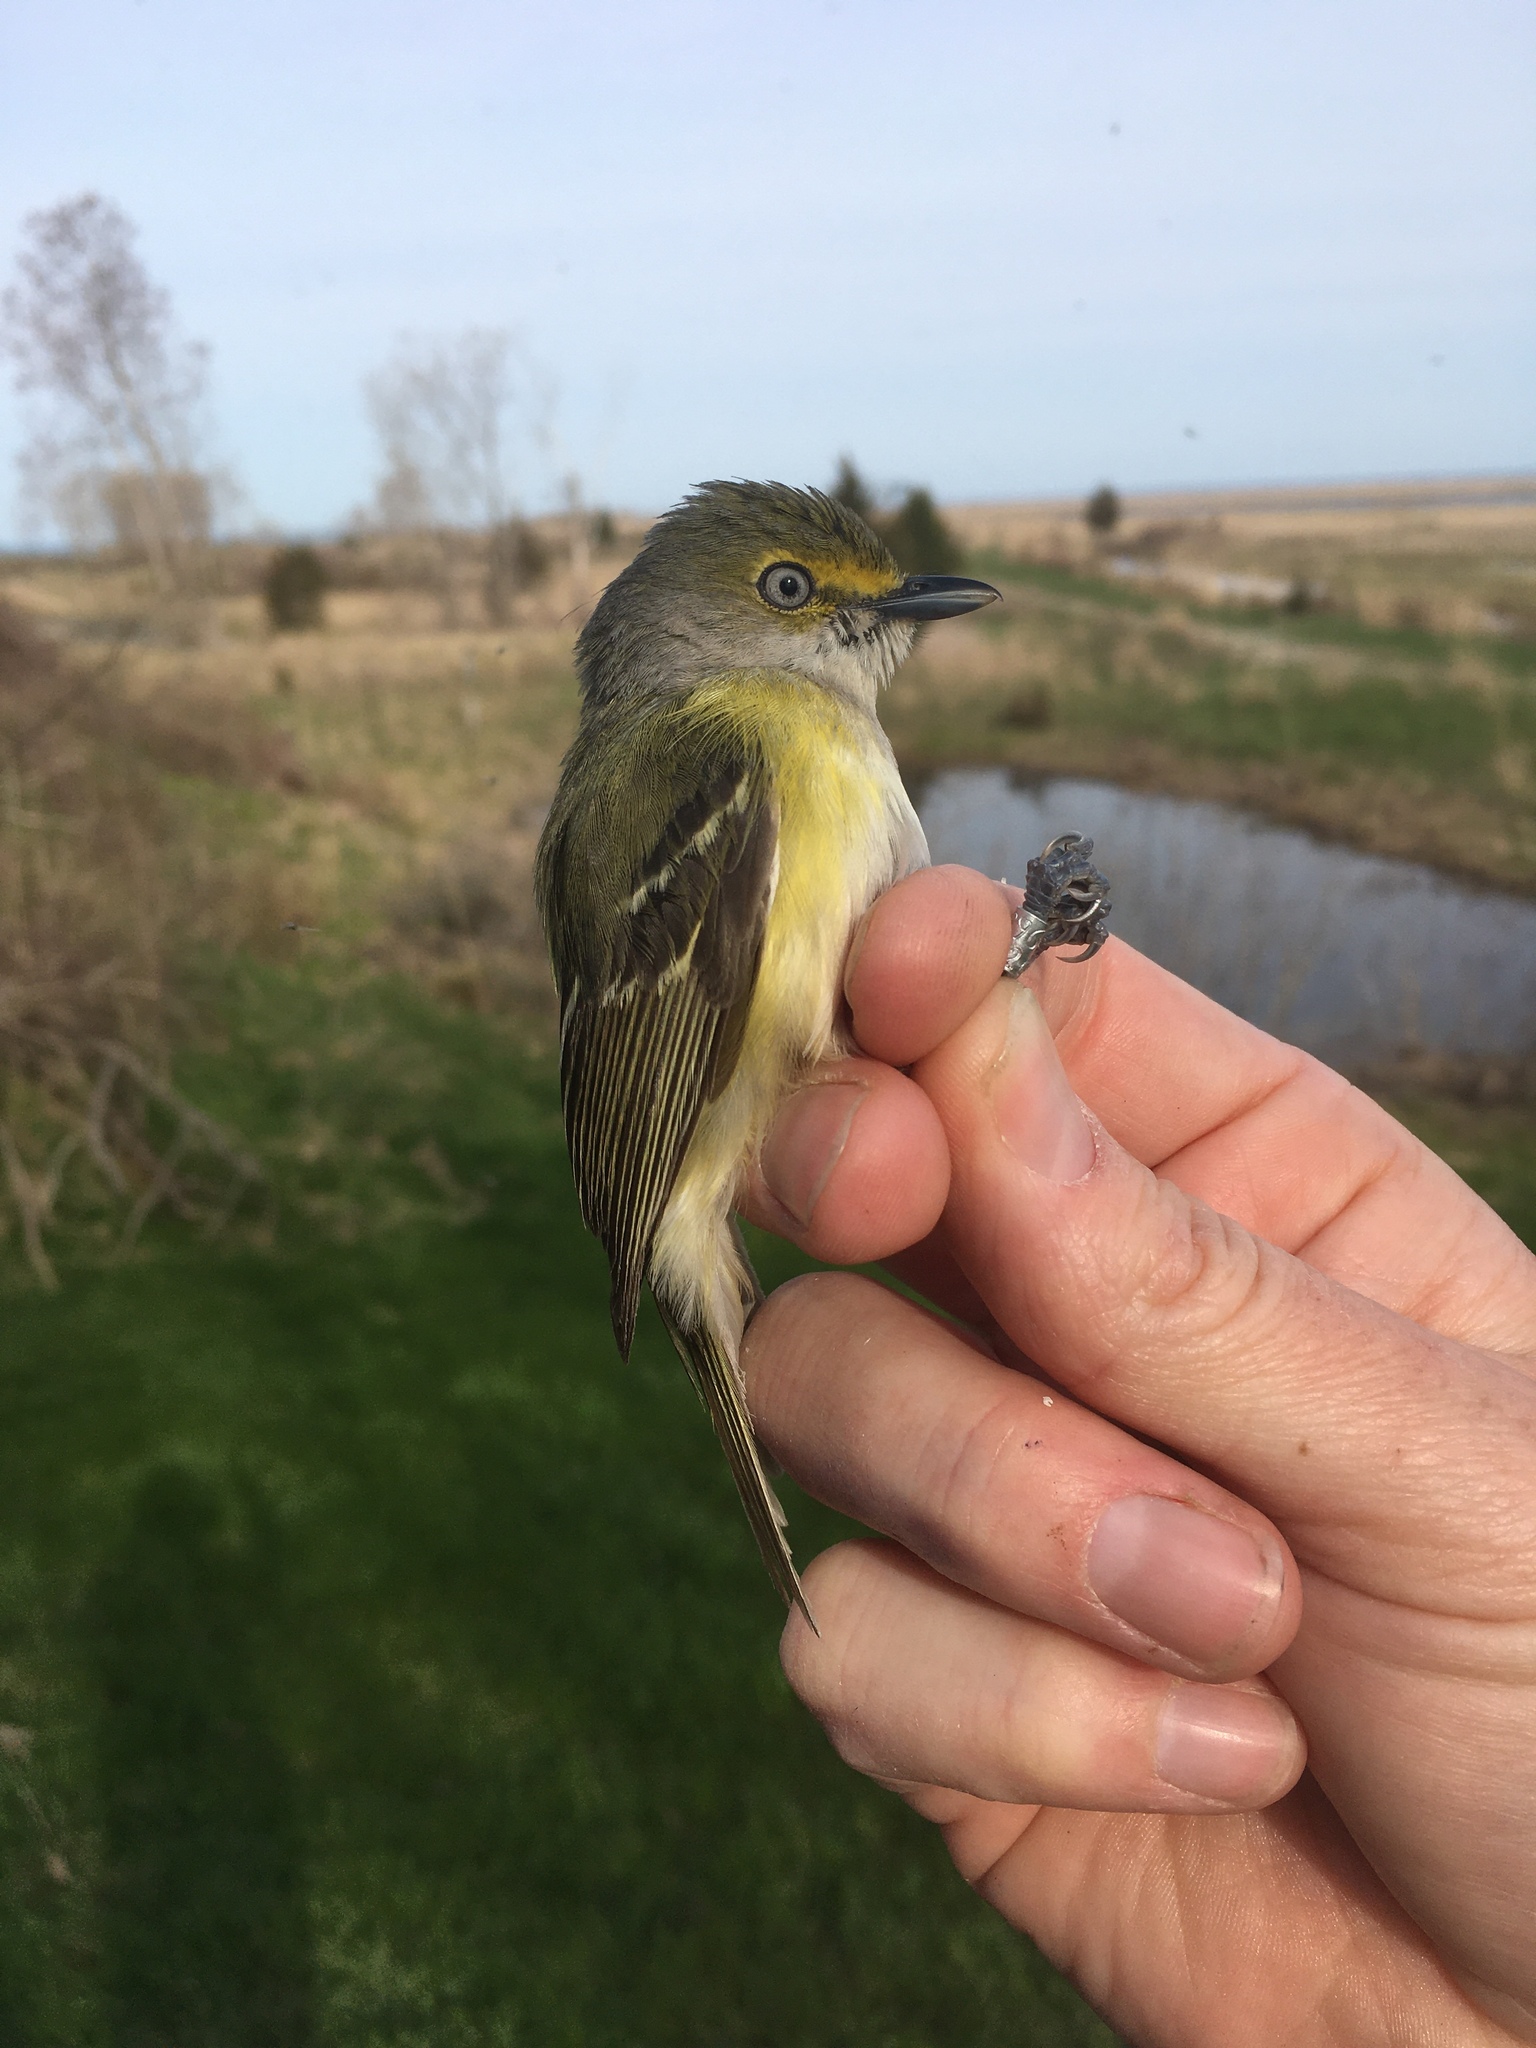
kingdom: Animalia
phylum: Chordata
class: Aves
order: Passeriformes
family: Vireonidae
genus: Vireo
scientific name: Vireo griseus
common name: White-eyed vireo
